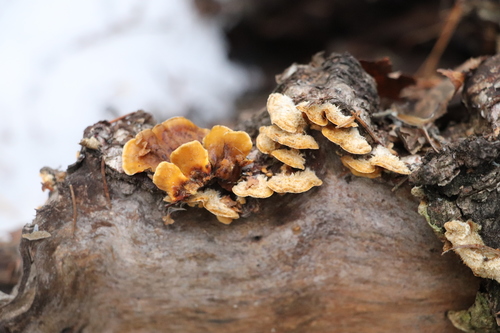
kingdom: Fungi
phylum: Basidiomycota
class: Agaricomycetes
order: Russulales
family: Stereaceae
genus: Stereum
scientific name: Stereum hirsutum
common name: Hairy curtain crust
